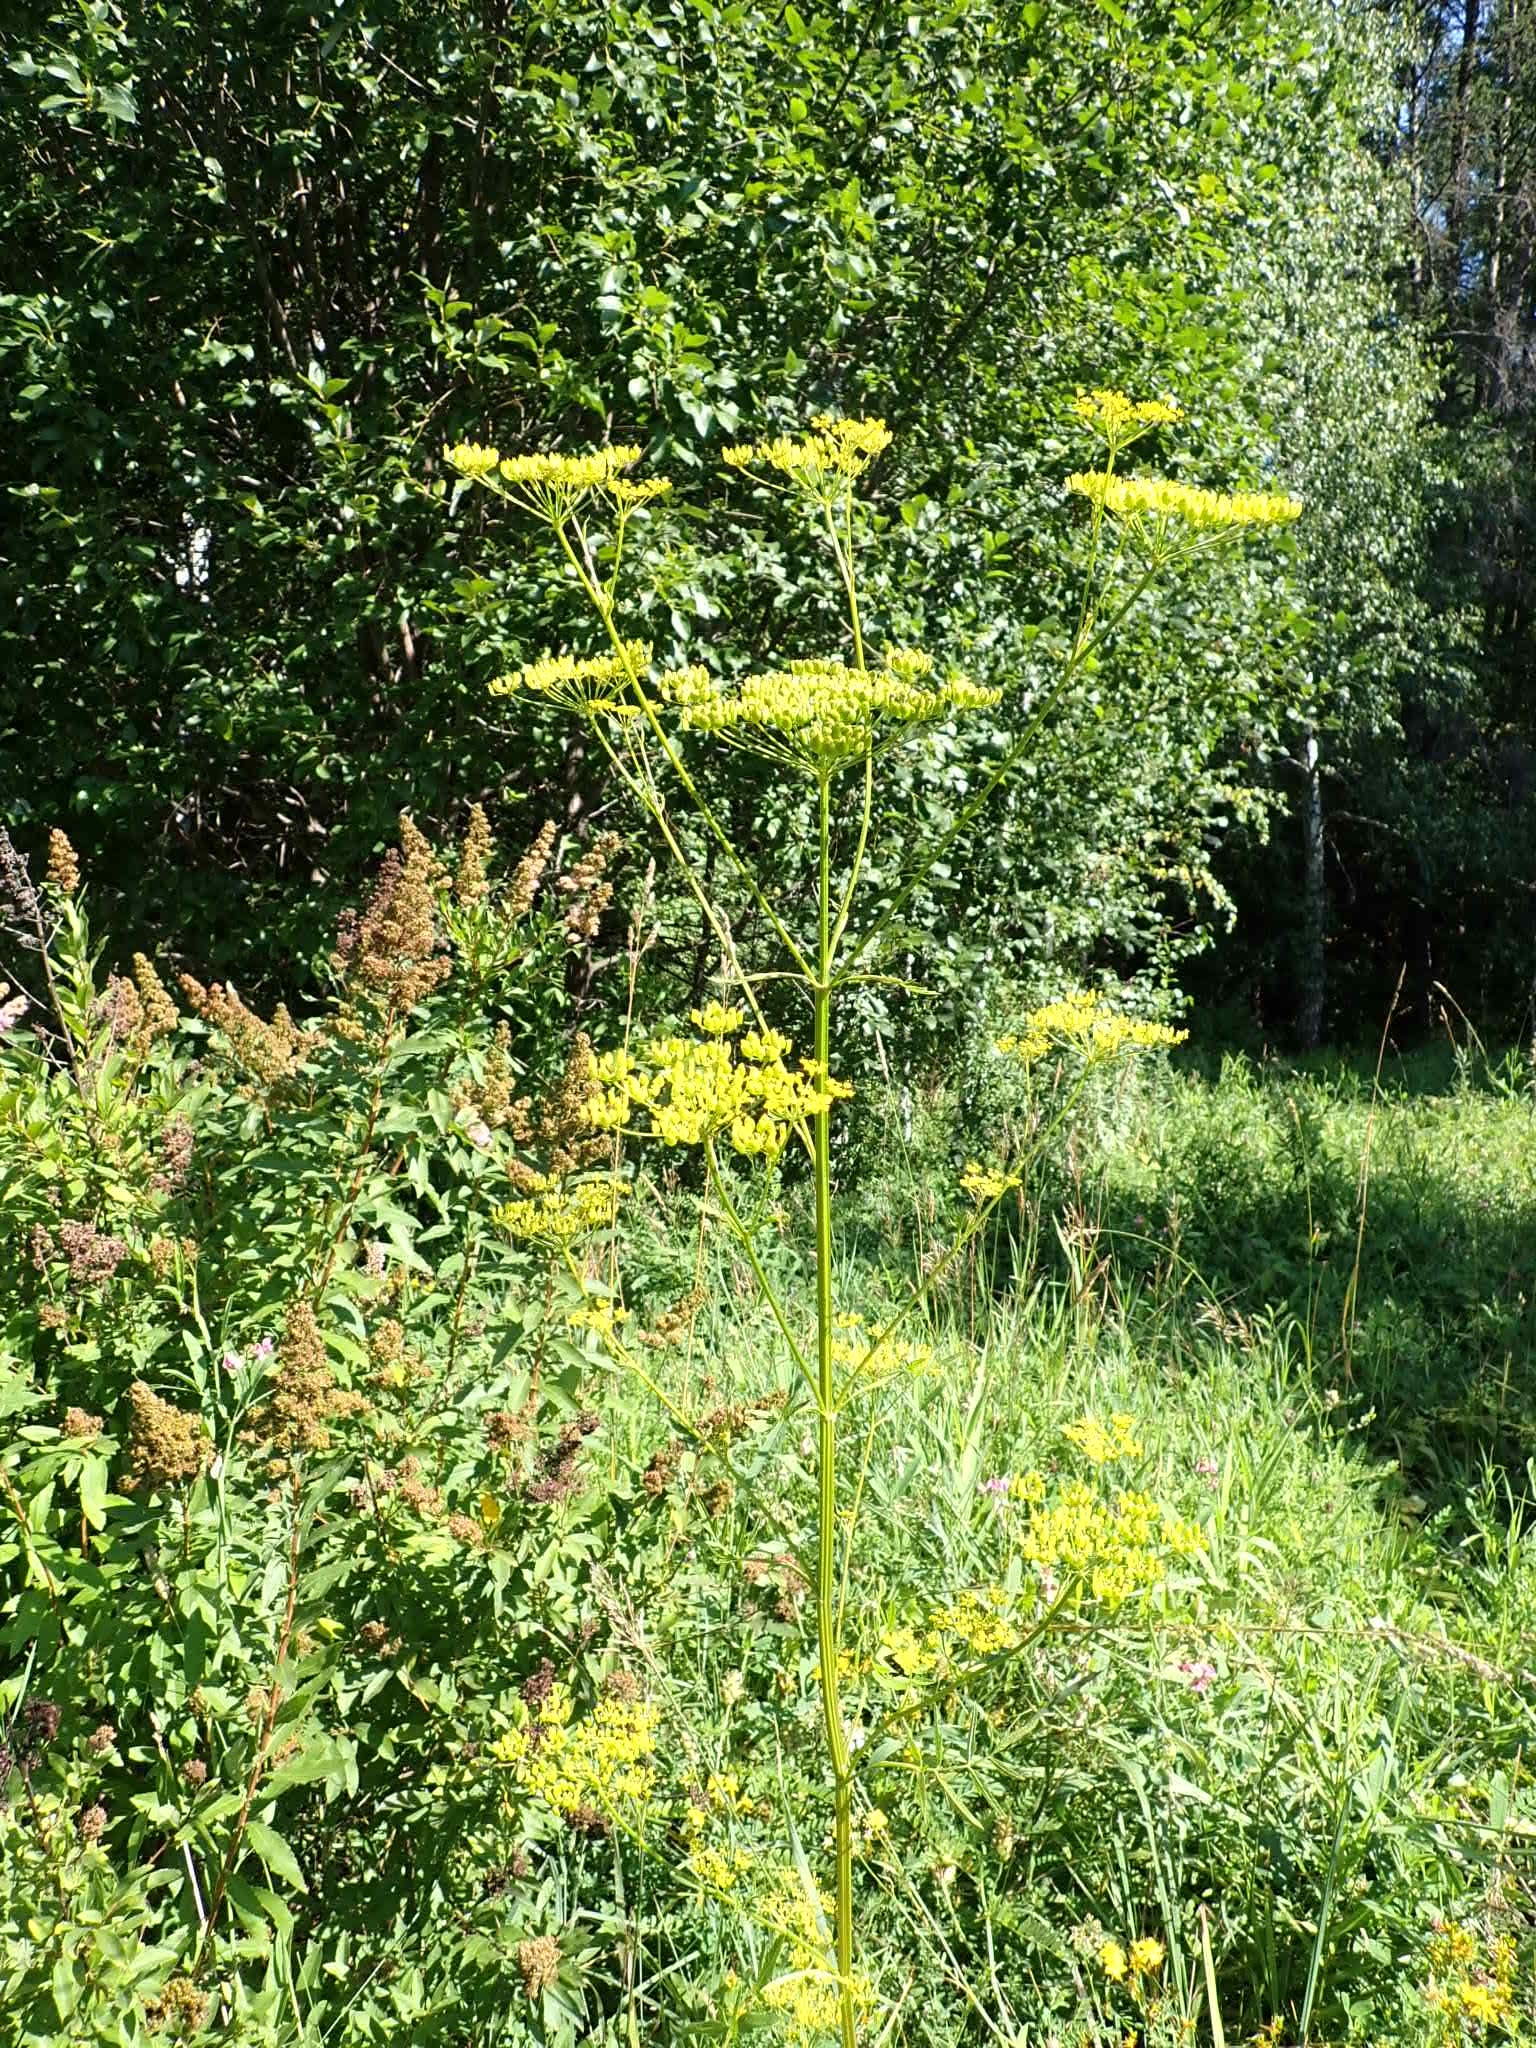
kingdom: Plantae
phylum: Tracheophyta
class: Magnoliopsida
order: Apiales
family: Apiaceae
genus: Pastinaca
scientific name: Pastinaca sativa
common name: Wild parsnip
